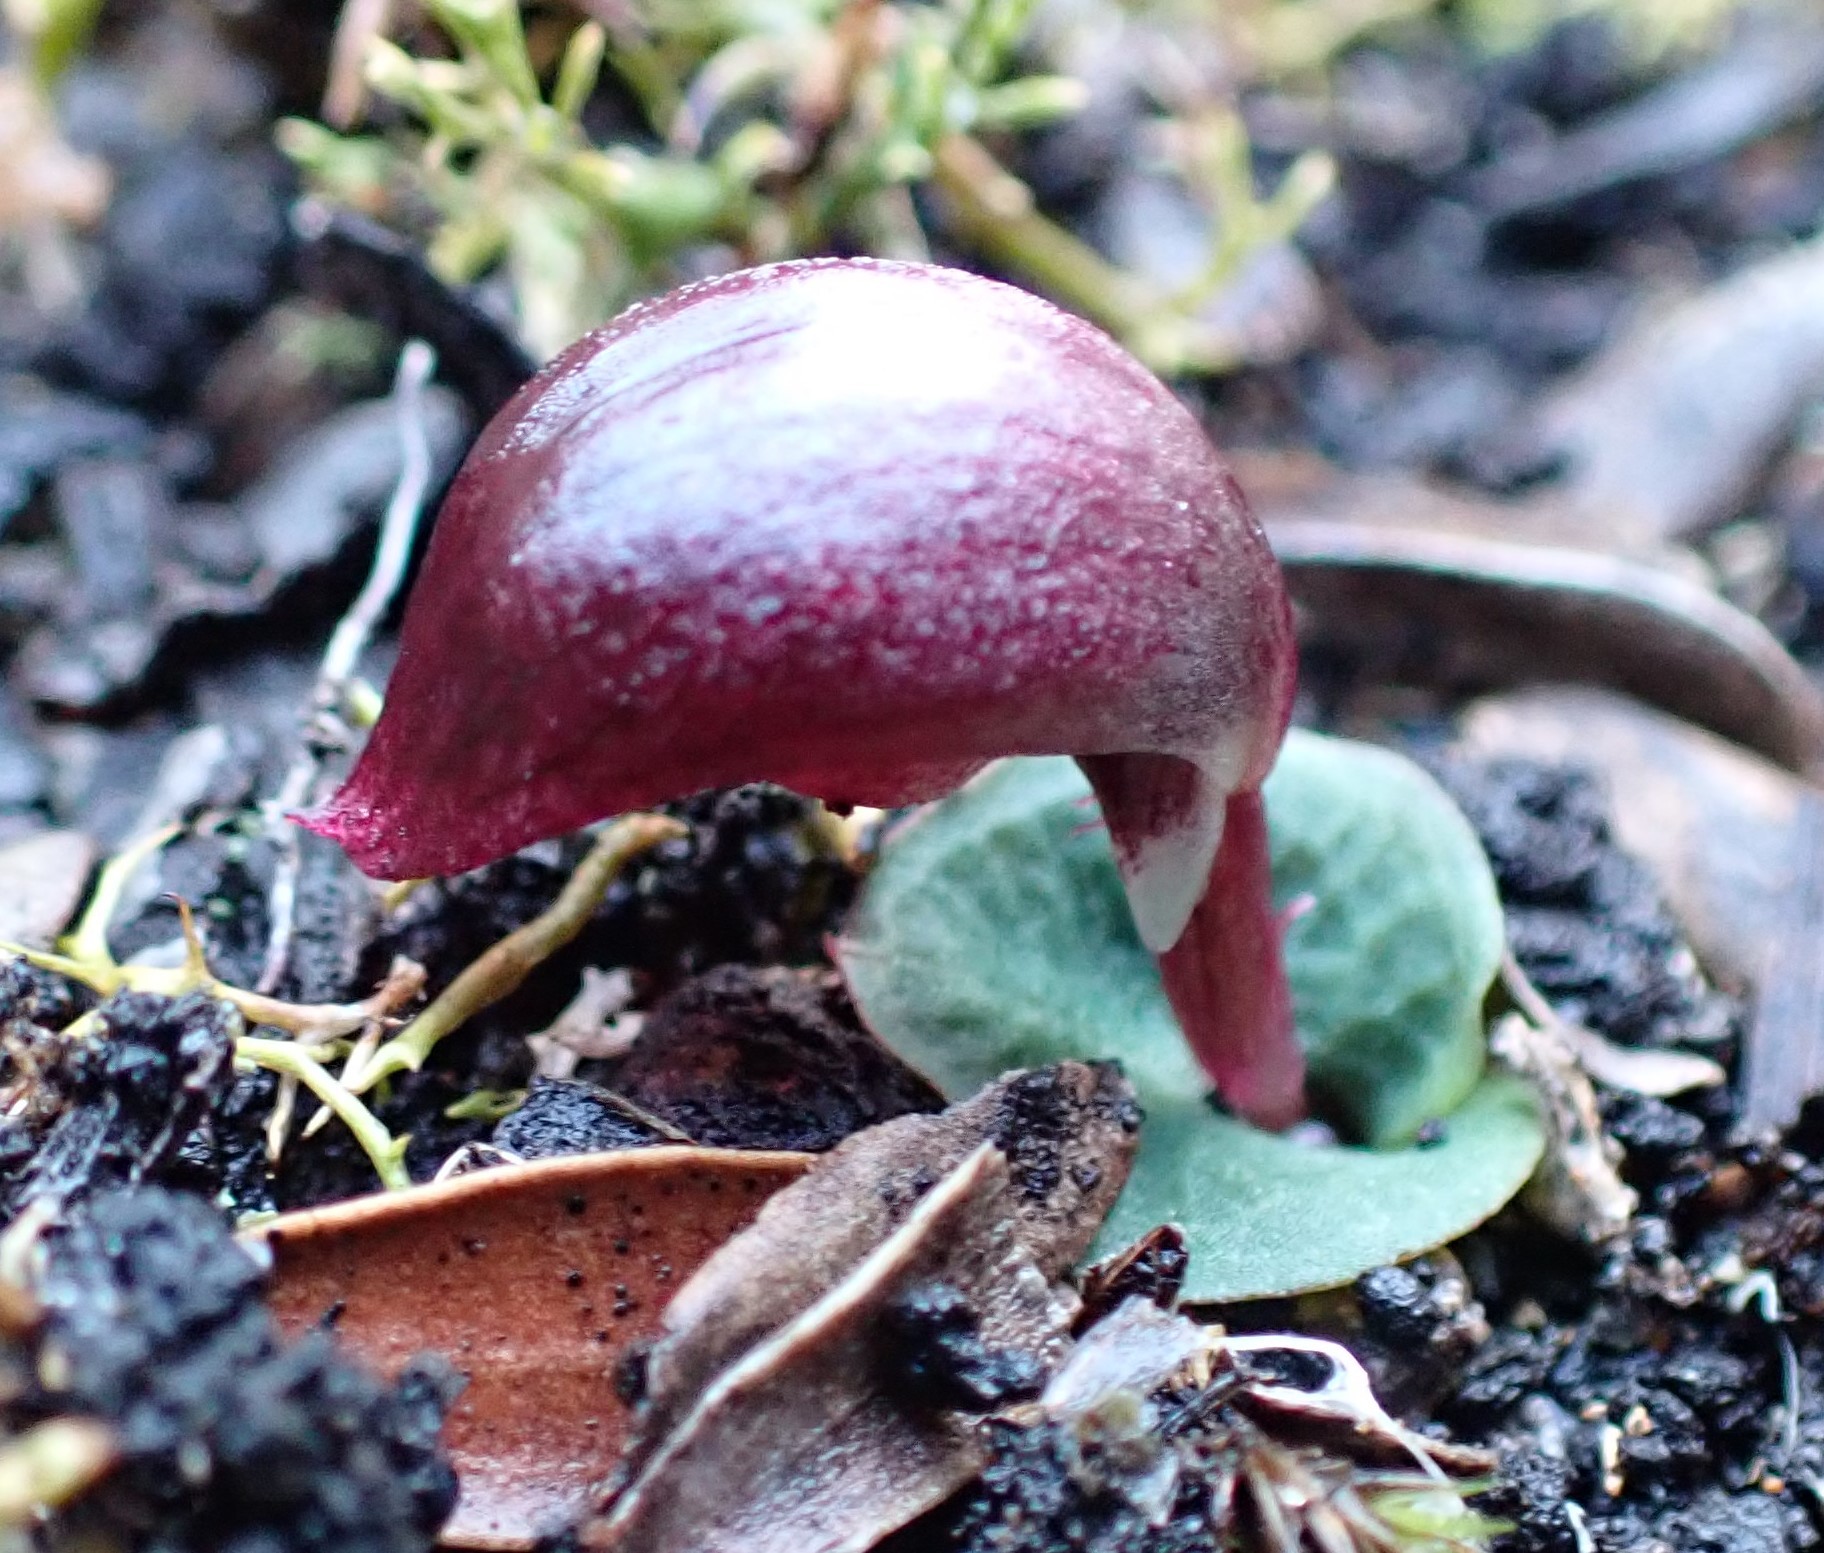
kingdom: Plantae
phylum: Tracheophyta
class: Liliopsida
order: Asparagales
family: Orchidaceae
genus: Corybas
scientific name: Corybas aconitiflorus
